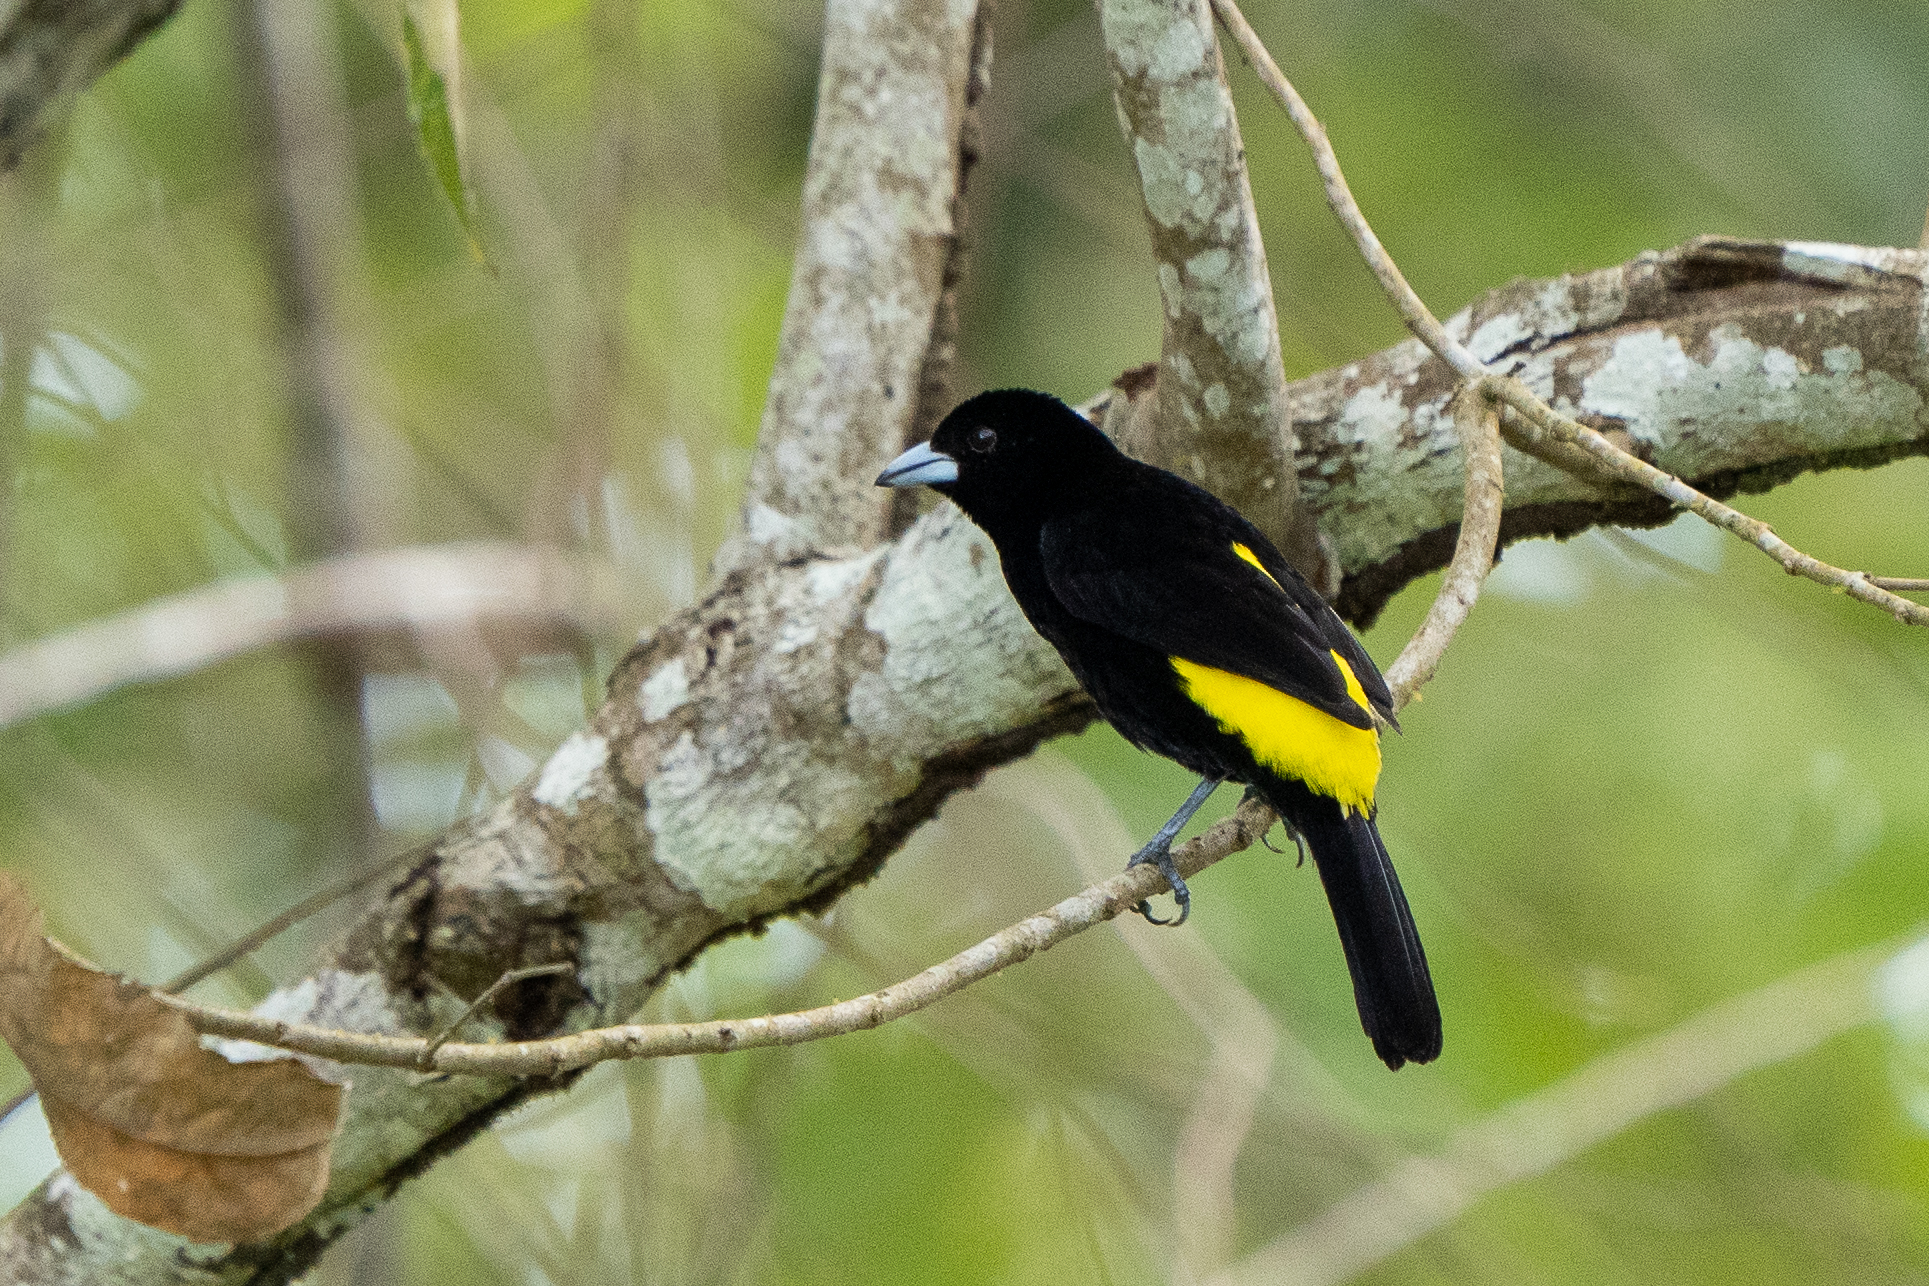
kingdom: Animalia
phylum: Chordata
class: Aves
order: Passeriformes
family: Thraupidae
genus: Ramphocelus
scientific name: Ramphocelus icteronotus
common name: Lemon-rumped tanager
